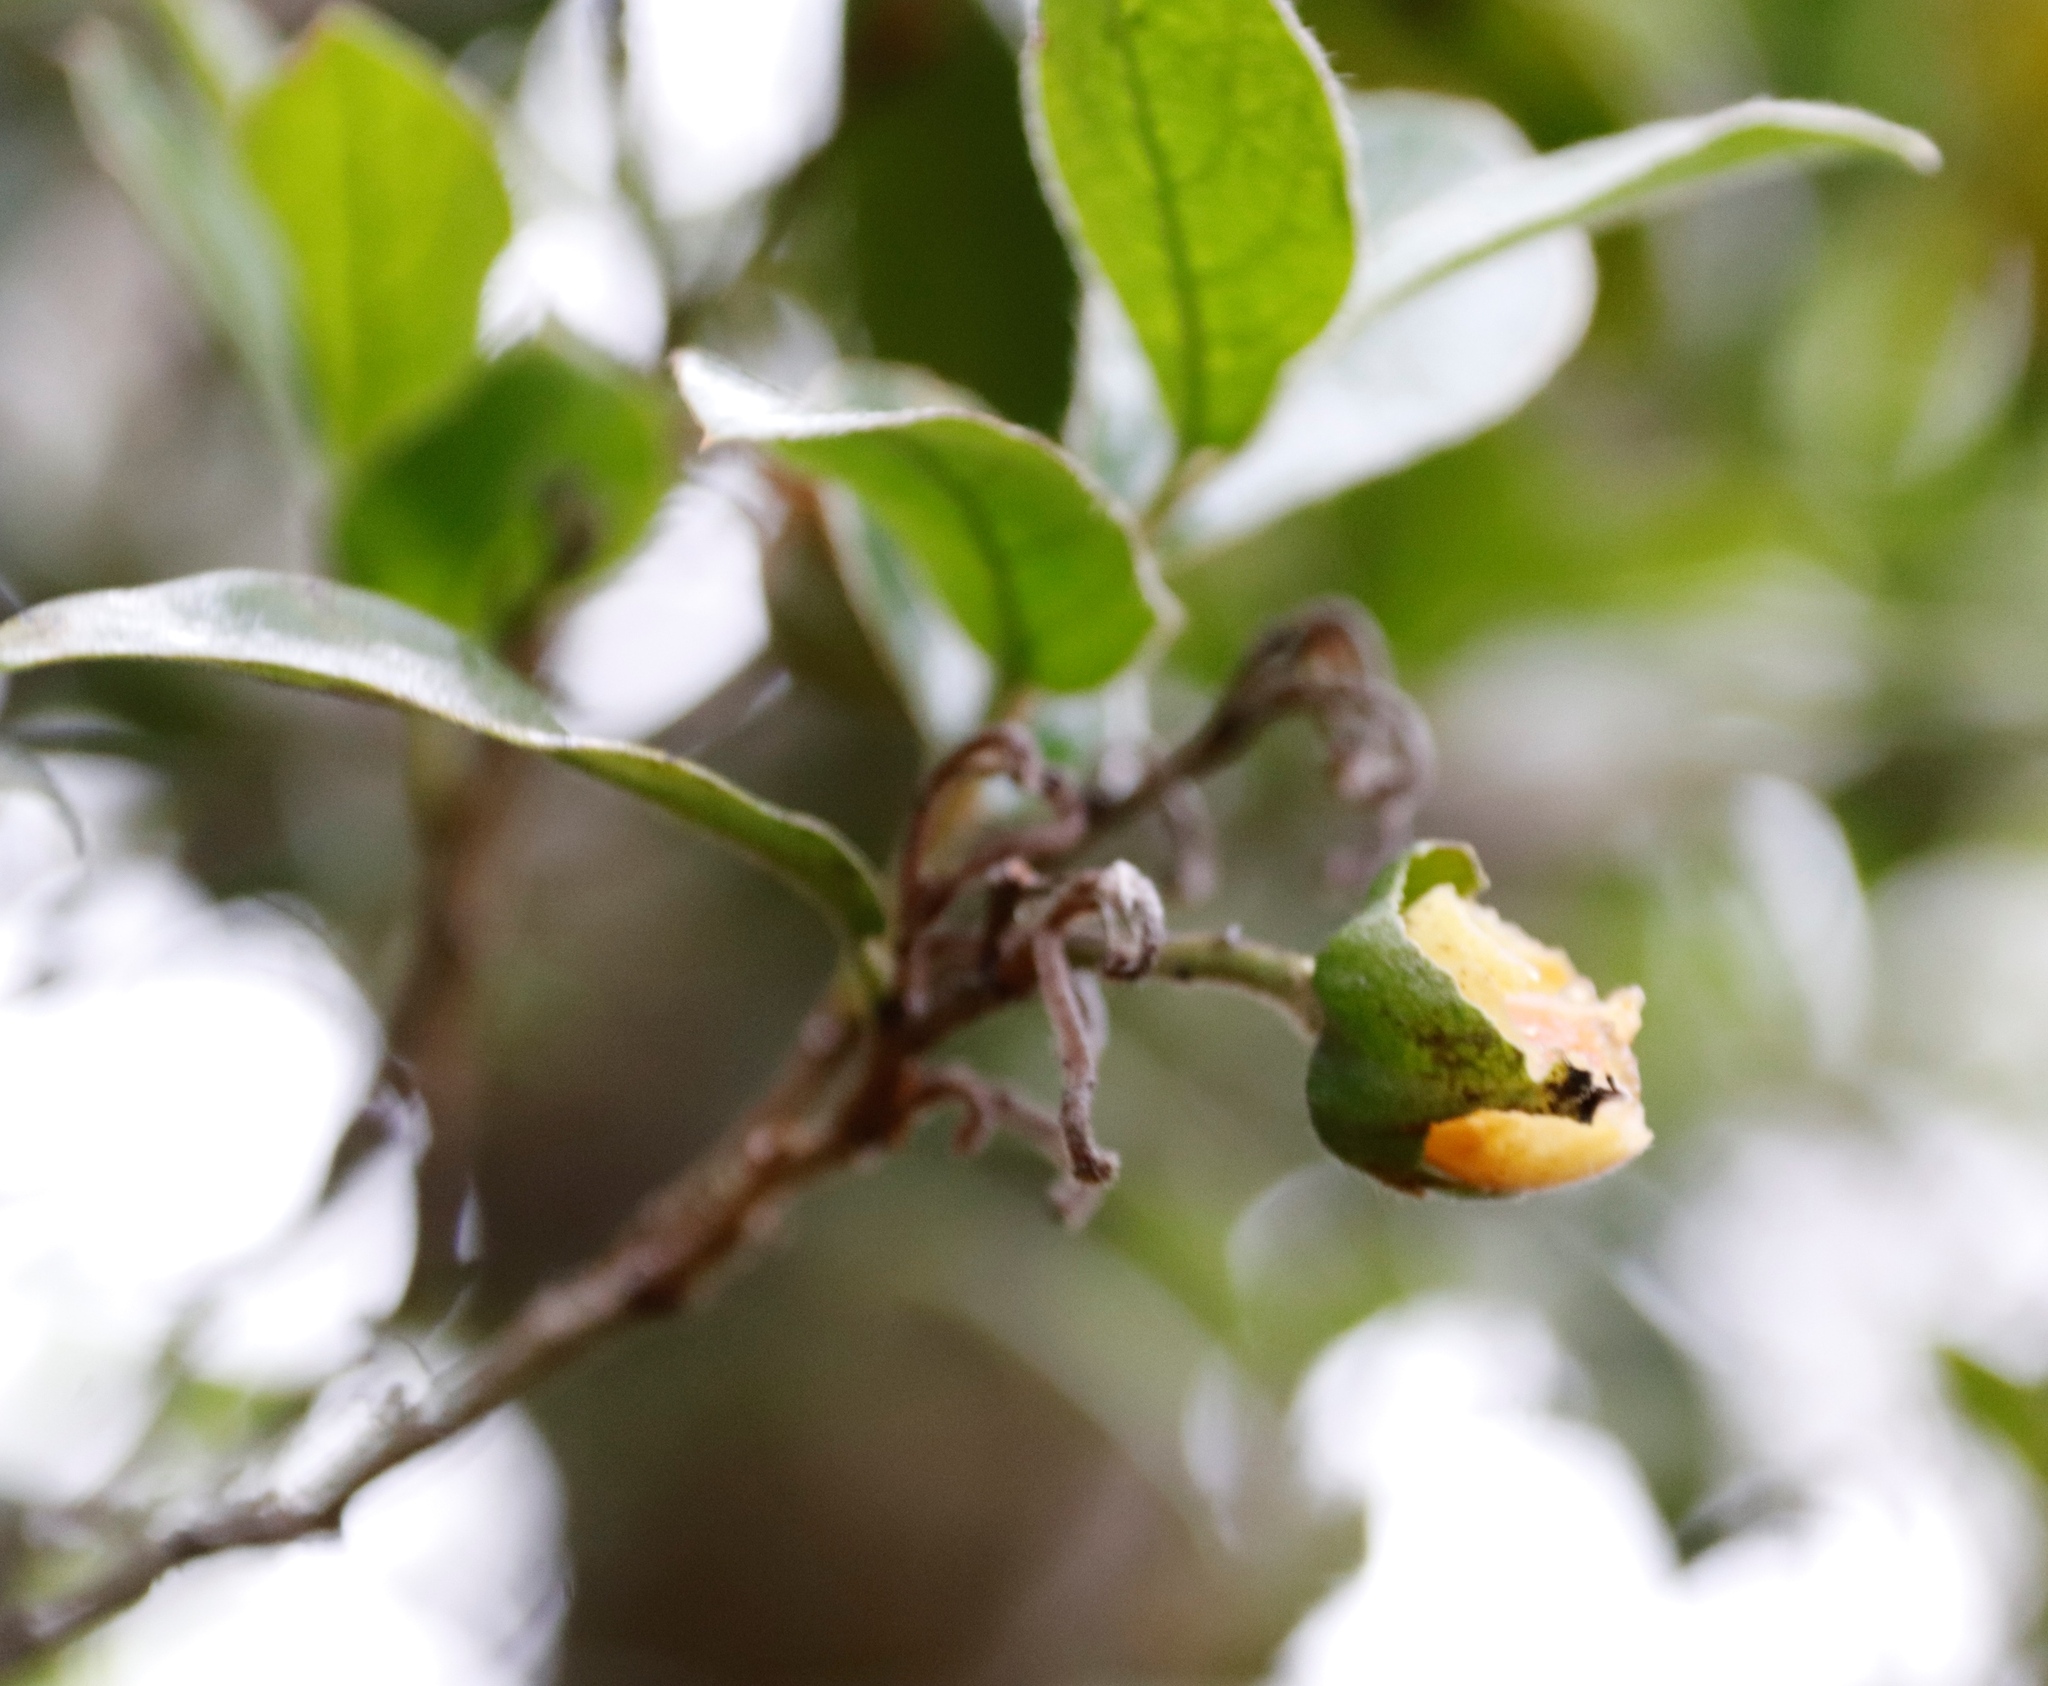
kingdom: Plantae
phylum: Tracheophyta
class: Magnoliopsida
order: Ericales
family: Ebenaceae
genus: Diospyros
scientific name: Diospyros whyteana
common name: Bladder-nut
